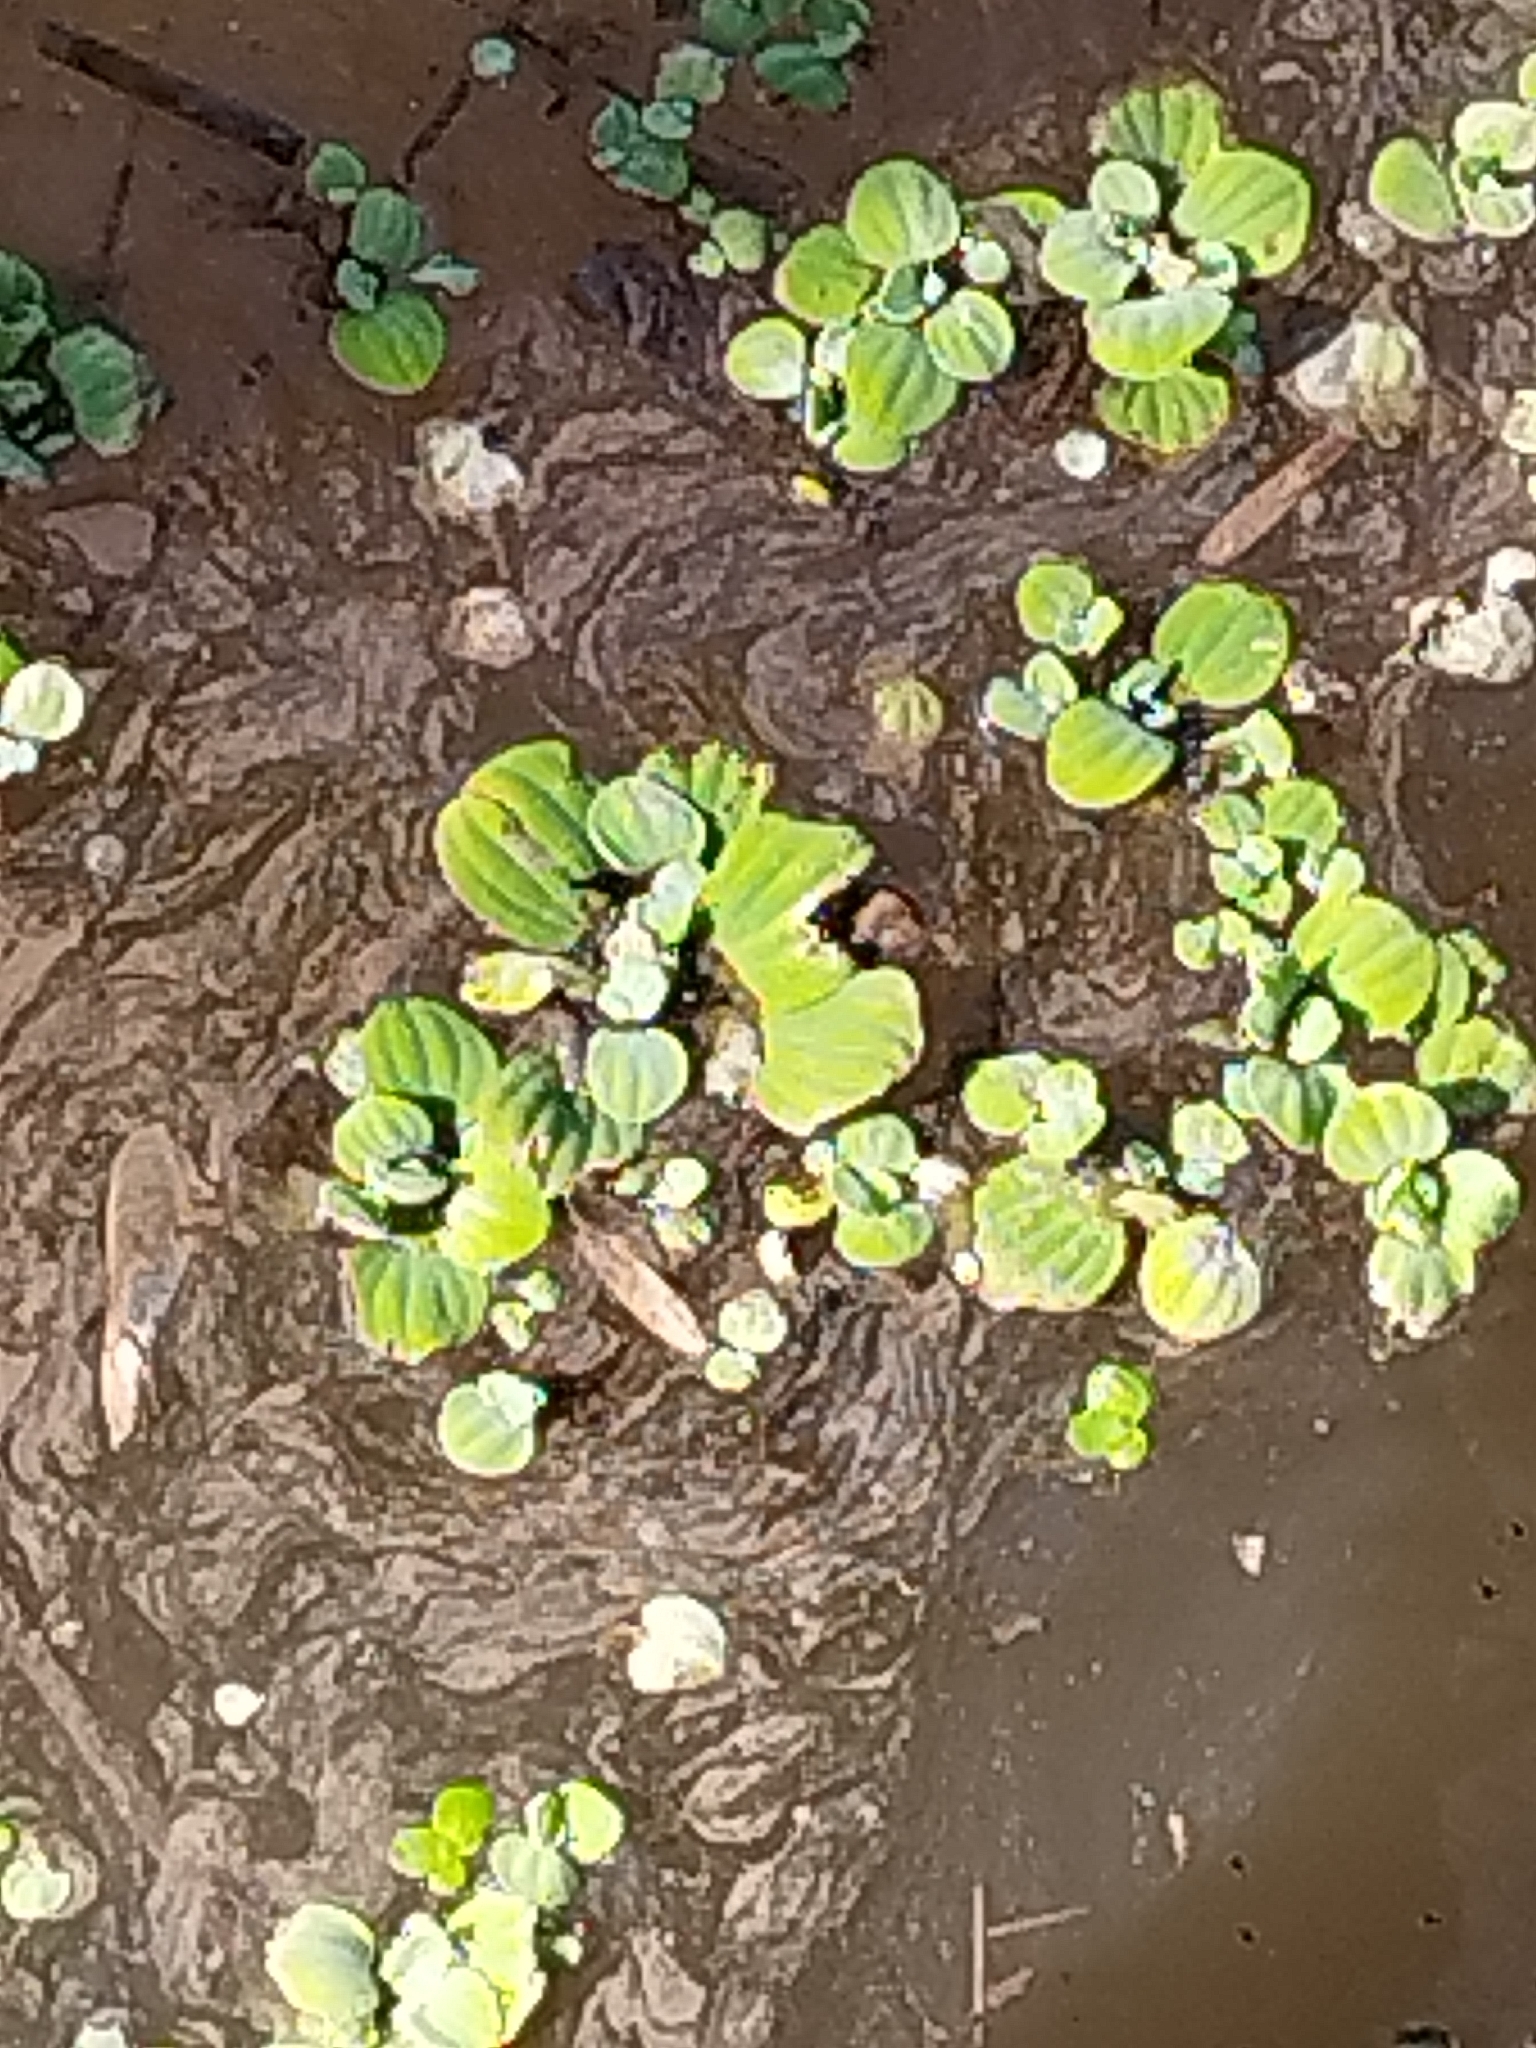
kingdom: Plantae
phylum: Tracheophyta
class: Liliopsida
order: Alismatales
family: Araceae
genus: Pistia
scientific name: Pistia stratiotes
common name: Water lettuce
